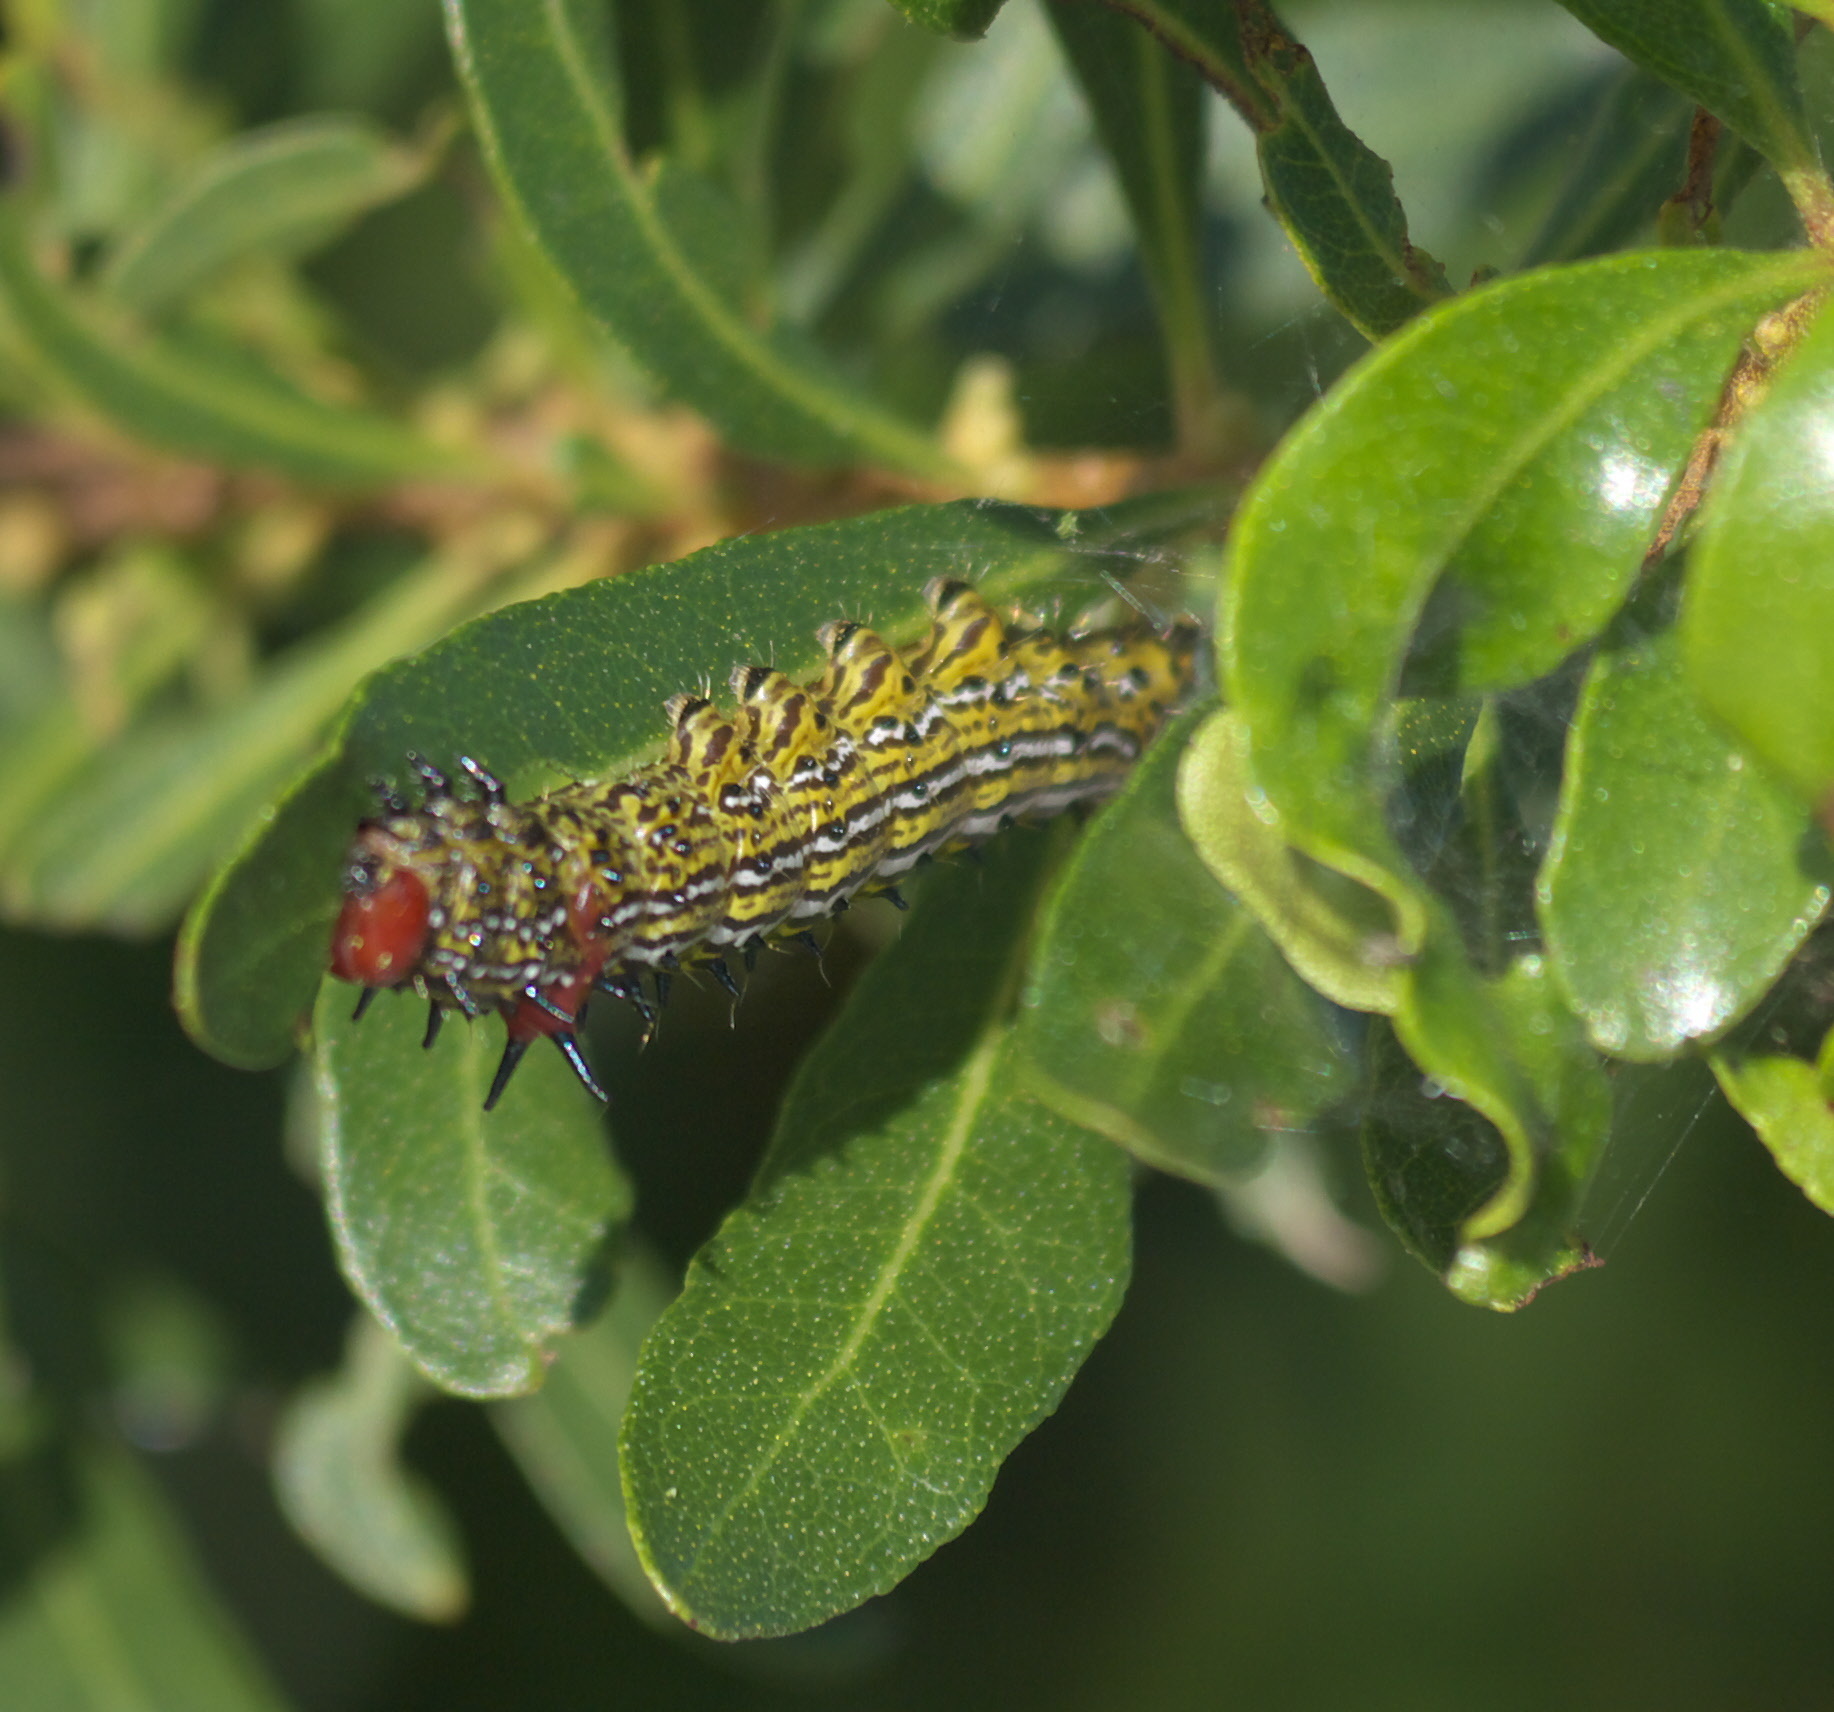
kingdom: Animalia
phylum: Arthropoda
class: Insecta
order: Lepidoptera
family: Notodontidae
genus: Schizura
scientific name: Schizura
